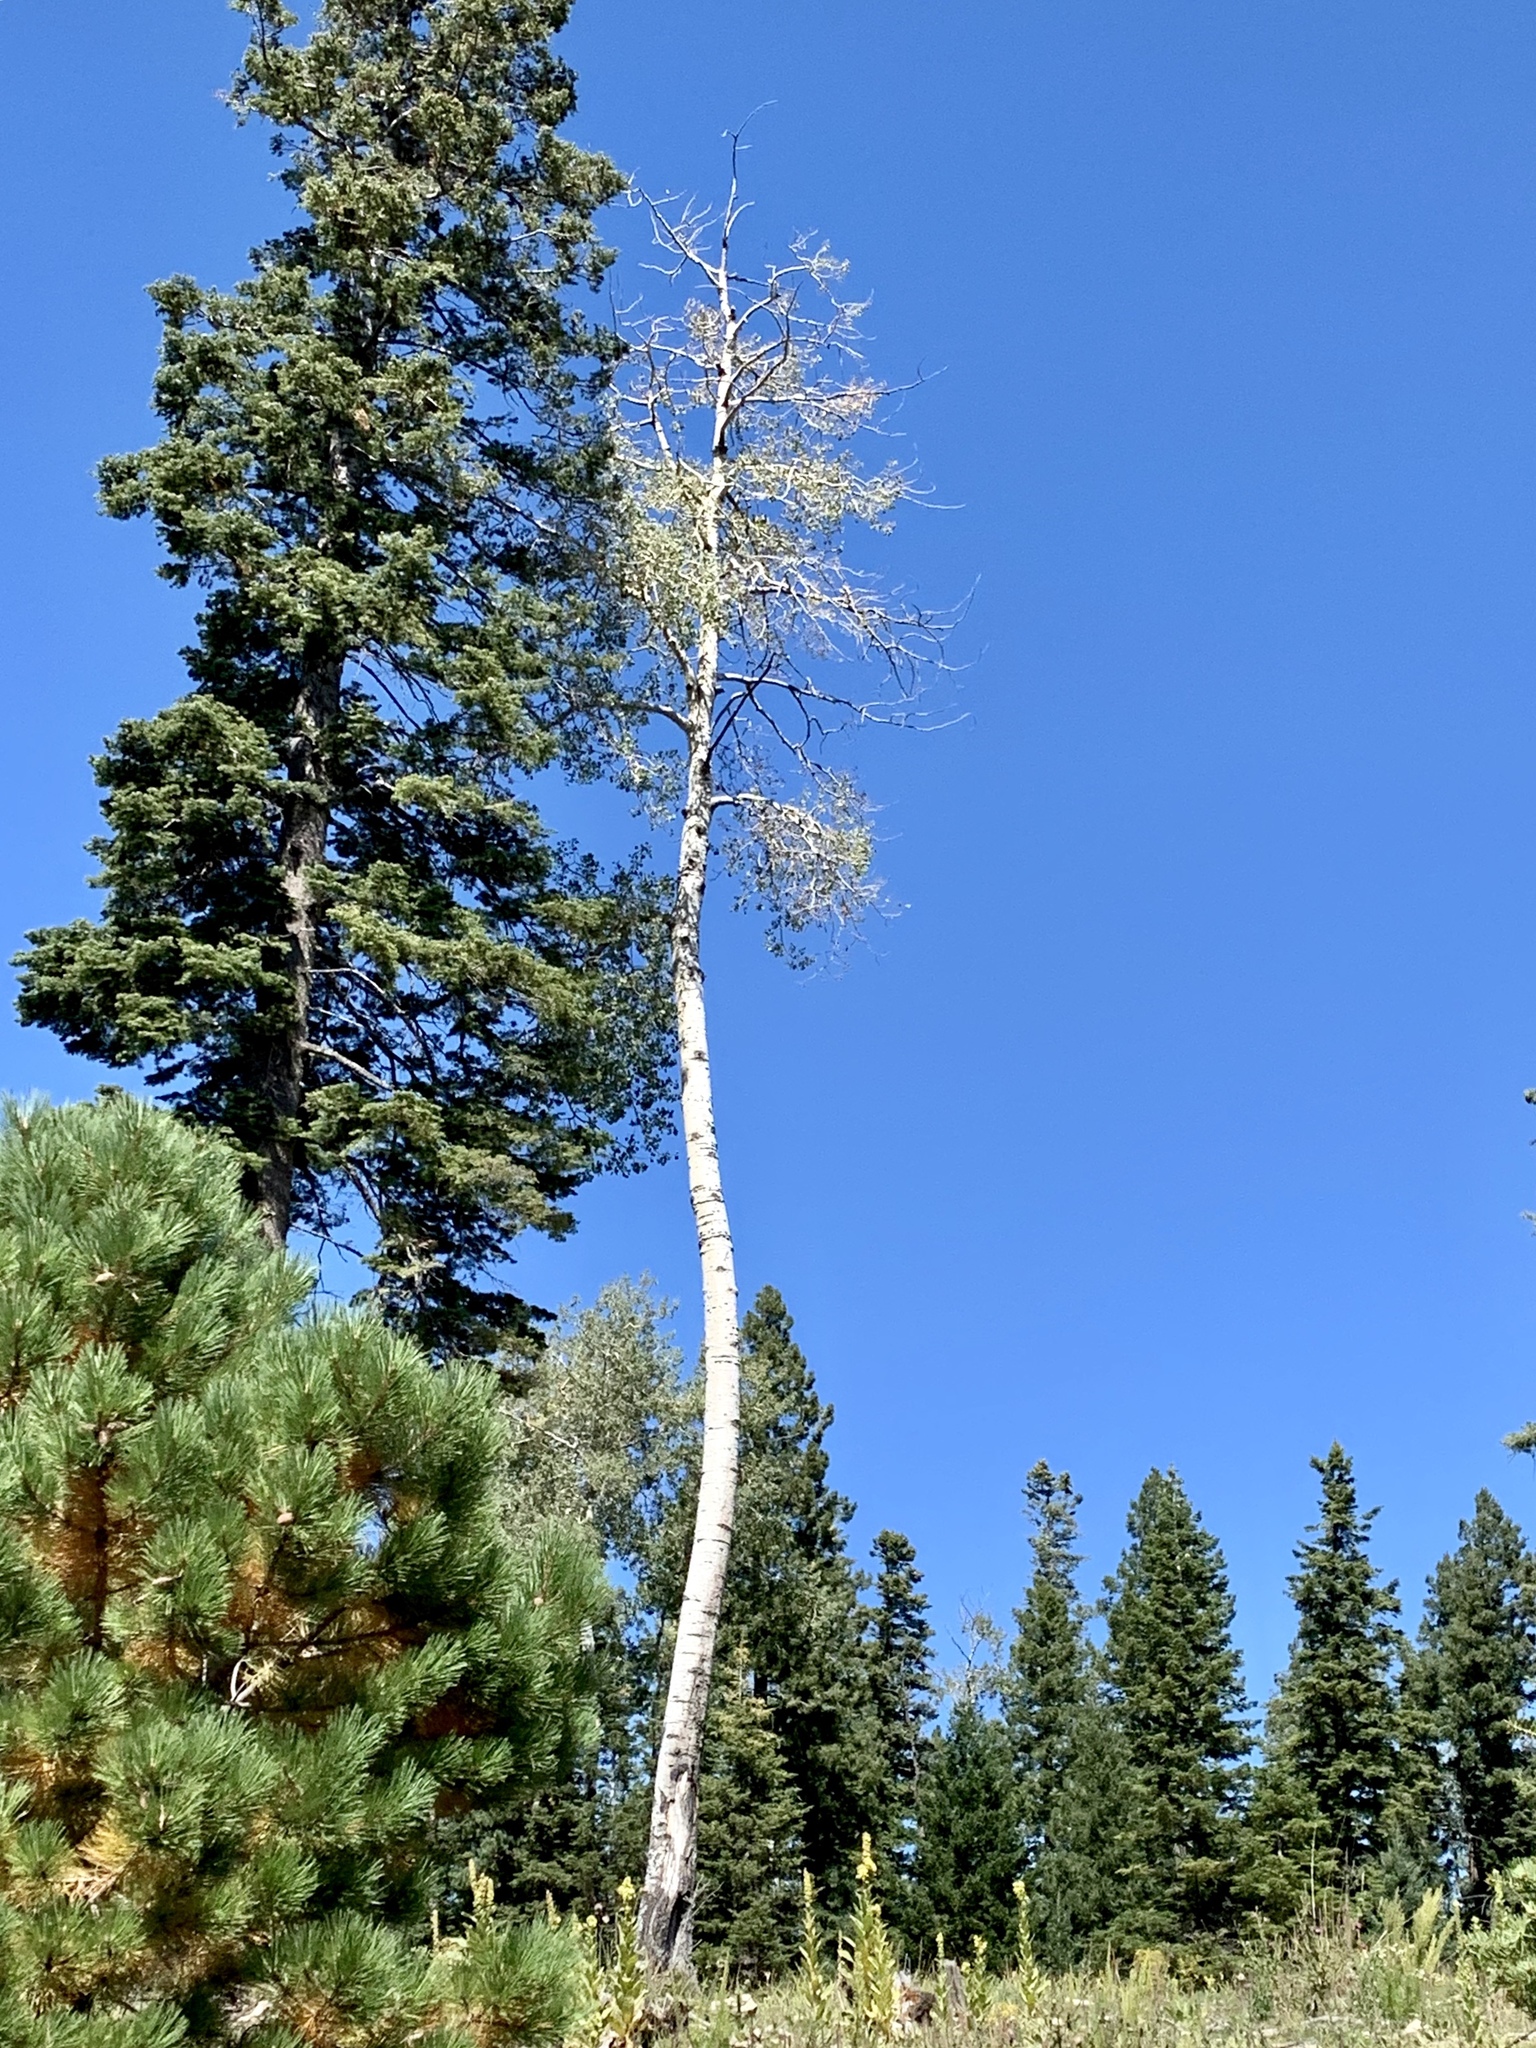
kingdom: Plantae
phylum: Tracheophyta
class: Magnoliopsida
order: Malpighiales
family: Salicaceae
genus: Populus
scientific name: Populus tremuloides
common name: Quaking aspen
